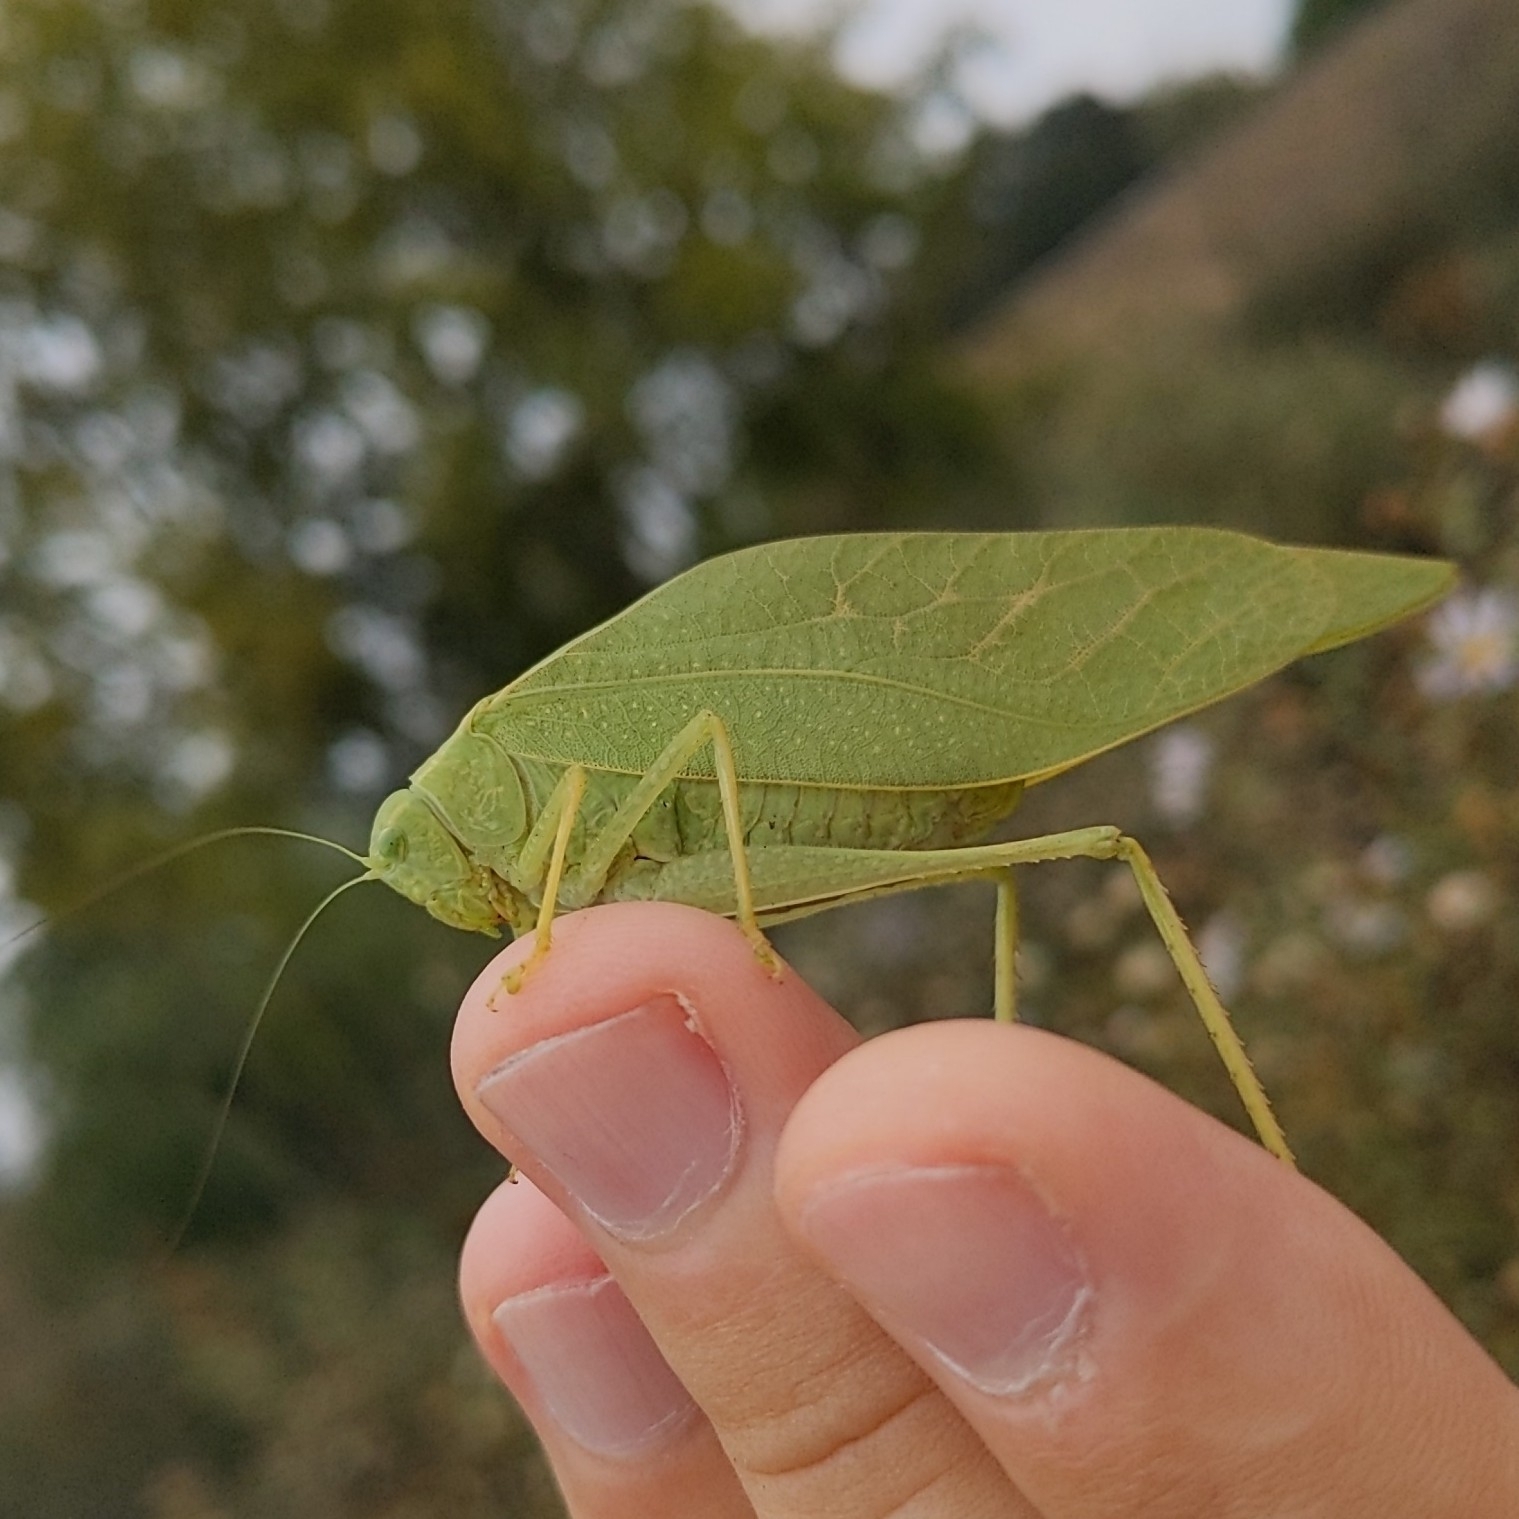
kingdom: Animalia
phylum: Arthropoda
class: Insecta
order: Orthoptera
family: Tettigoniidae
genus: Microcentrum
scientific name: Microcentrum rhombifolium
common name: Broad-winged katydid
